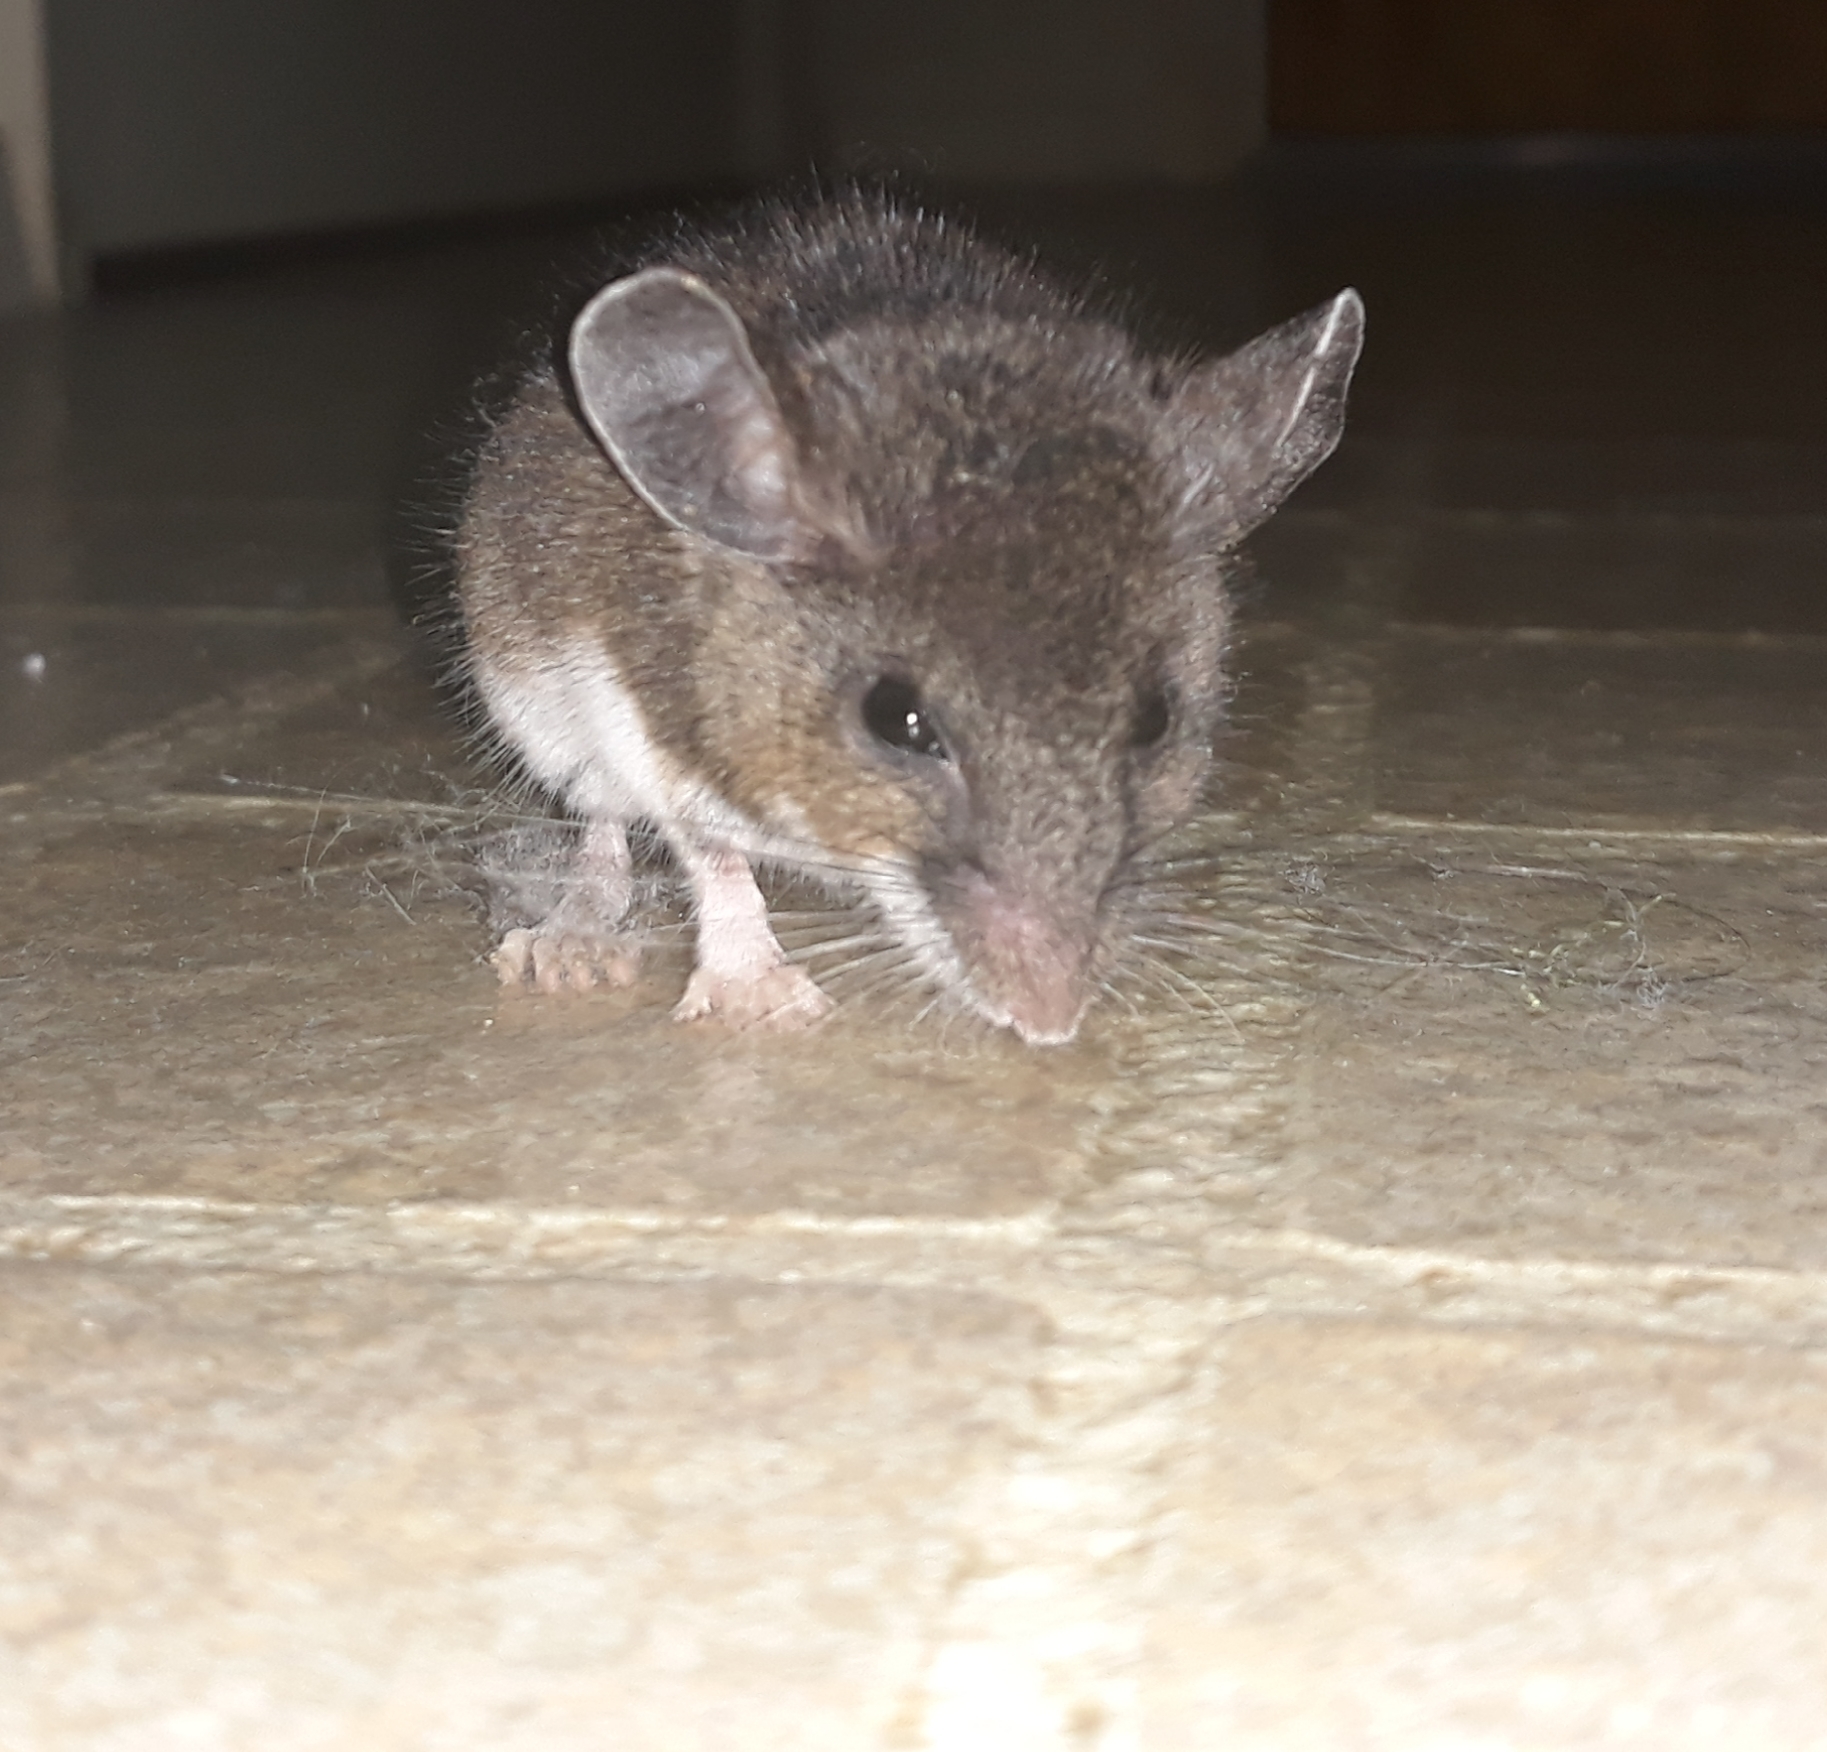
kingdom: Animalia
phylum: Chordata
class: Mammalia
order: Rodentia
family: Cricetidae
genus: Peromyscus
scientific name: Peromyscus maniculatus
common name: Deer mouse
